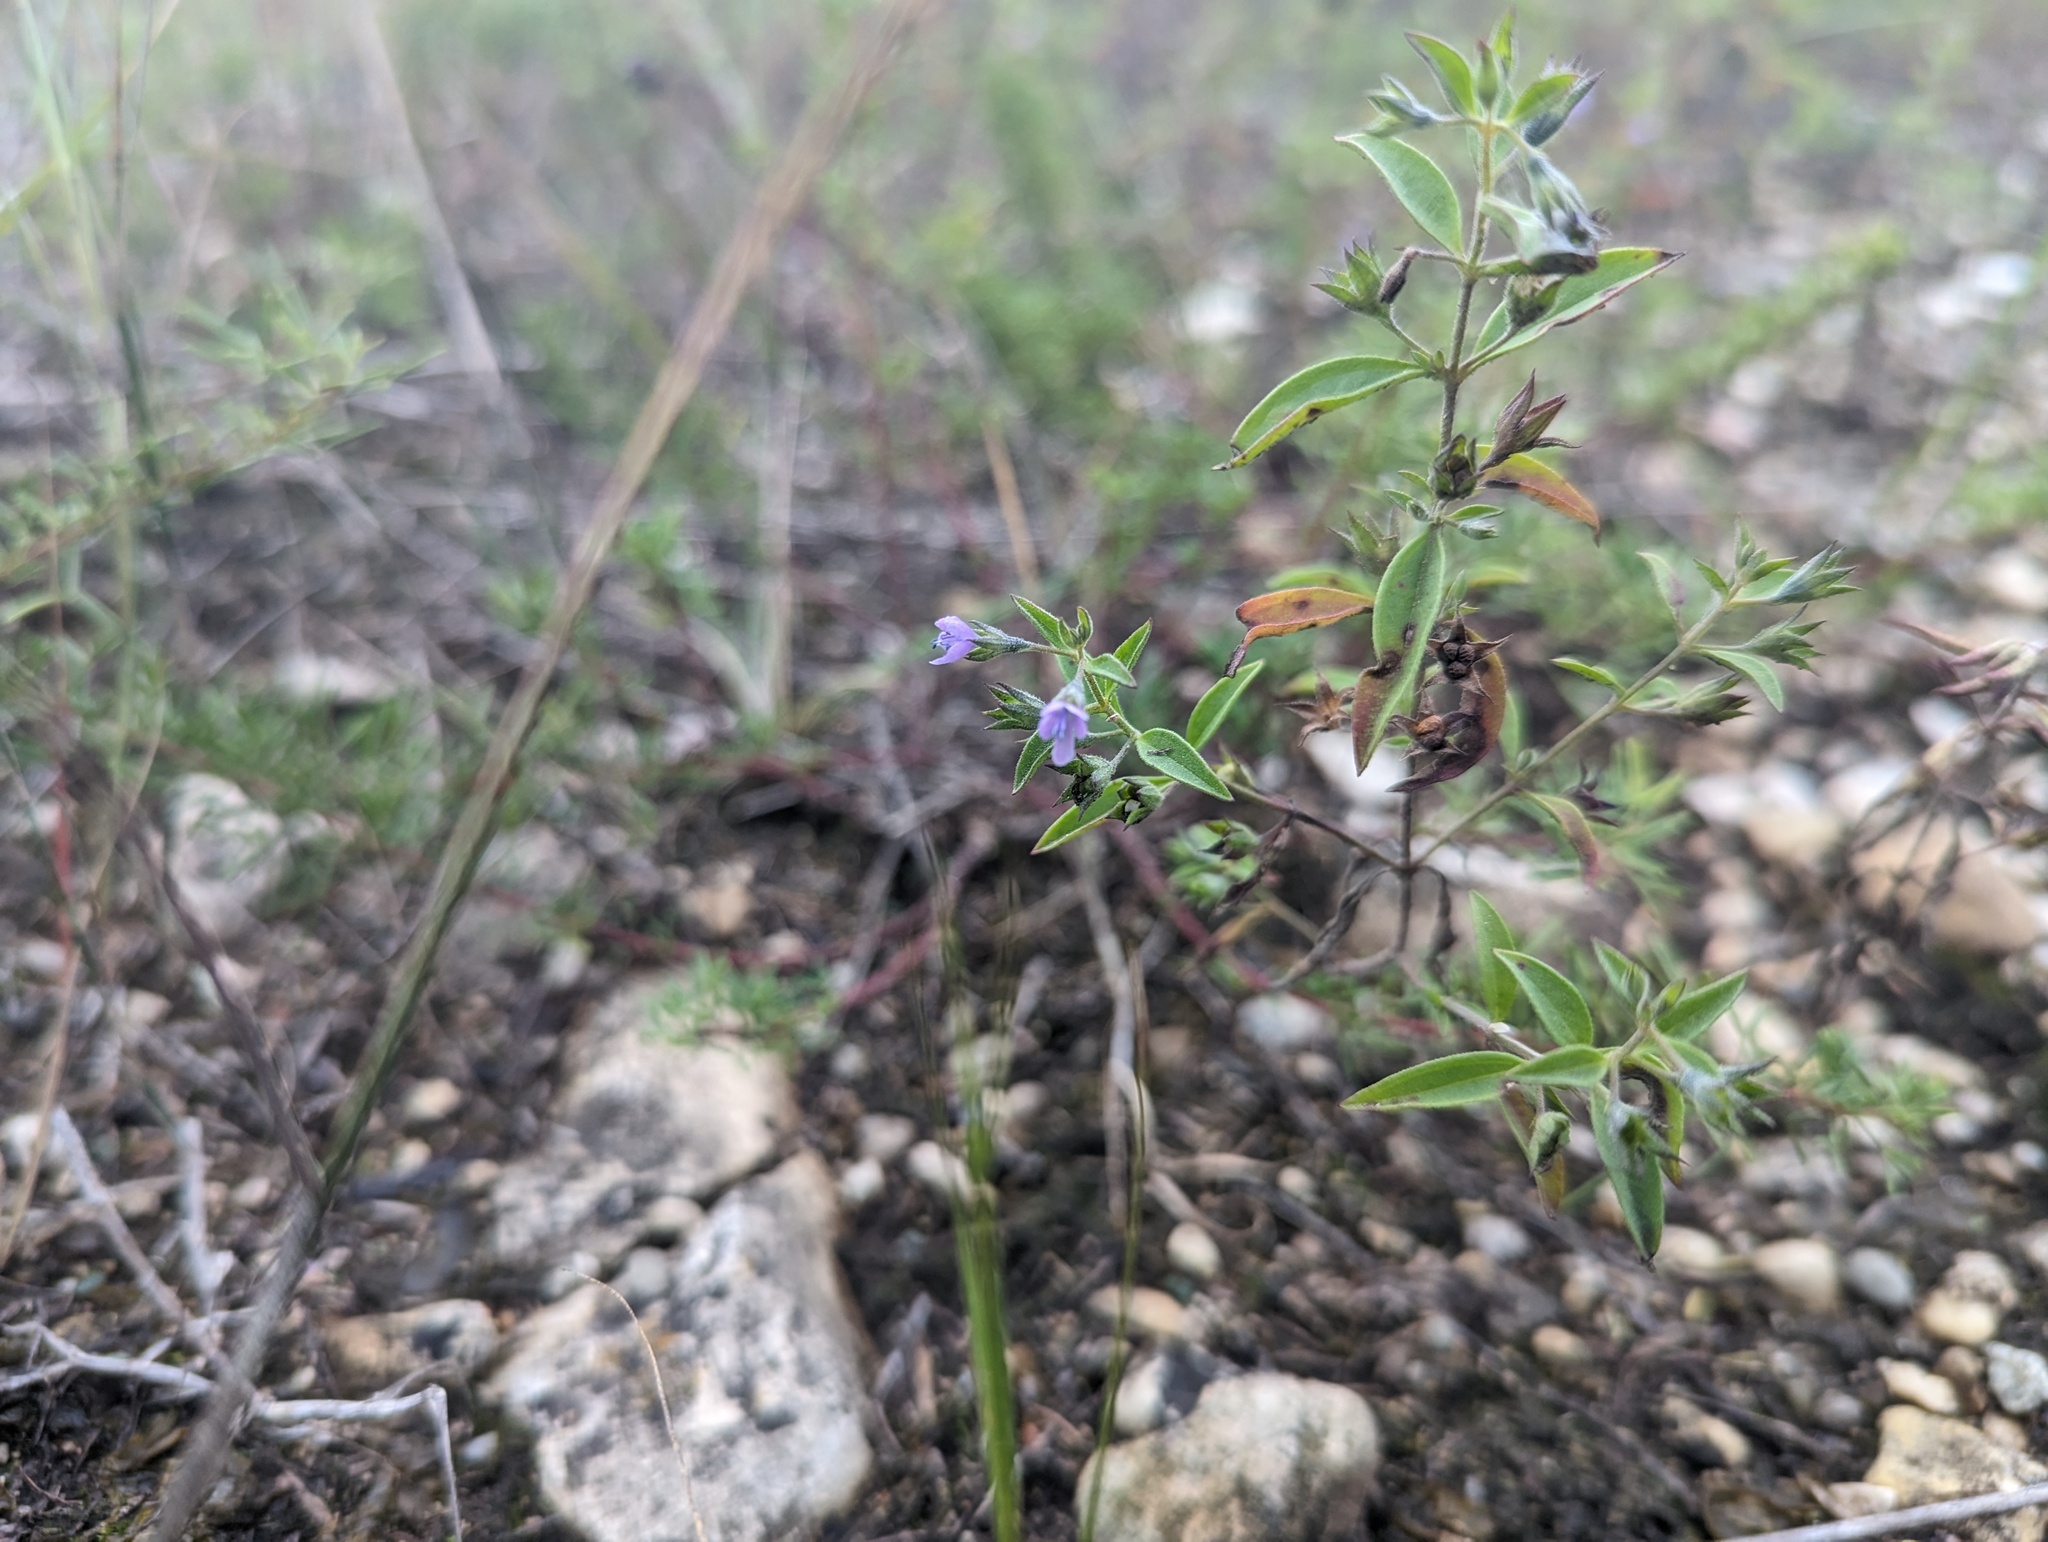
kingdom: Plantae
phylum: Tracheophyta
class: Magnoliopsida
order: Lamiales
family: Lamiaceae
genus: Trichostema
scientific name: Trichostema brachiatum
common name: False pennyroyal
